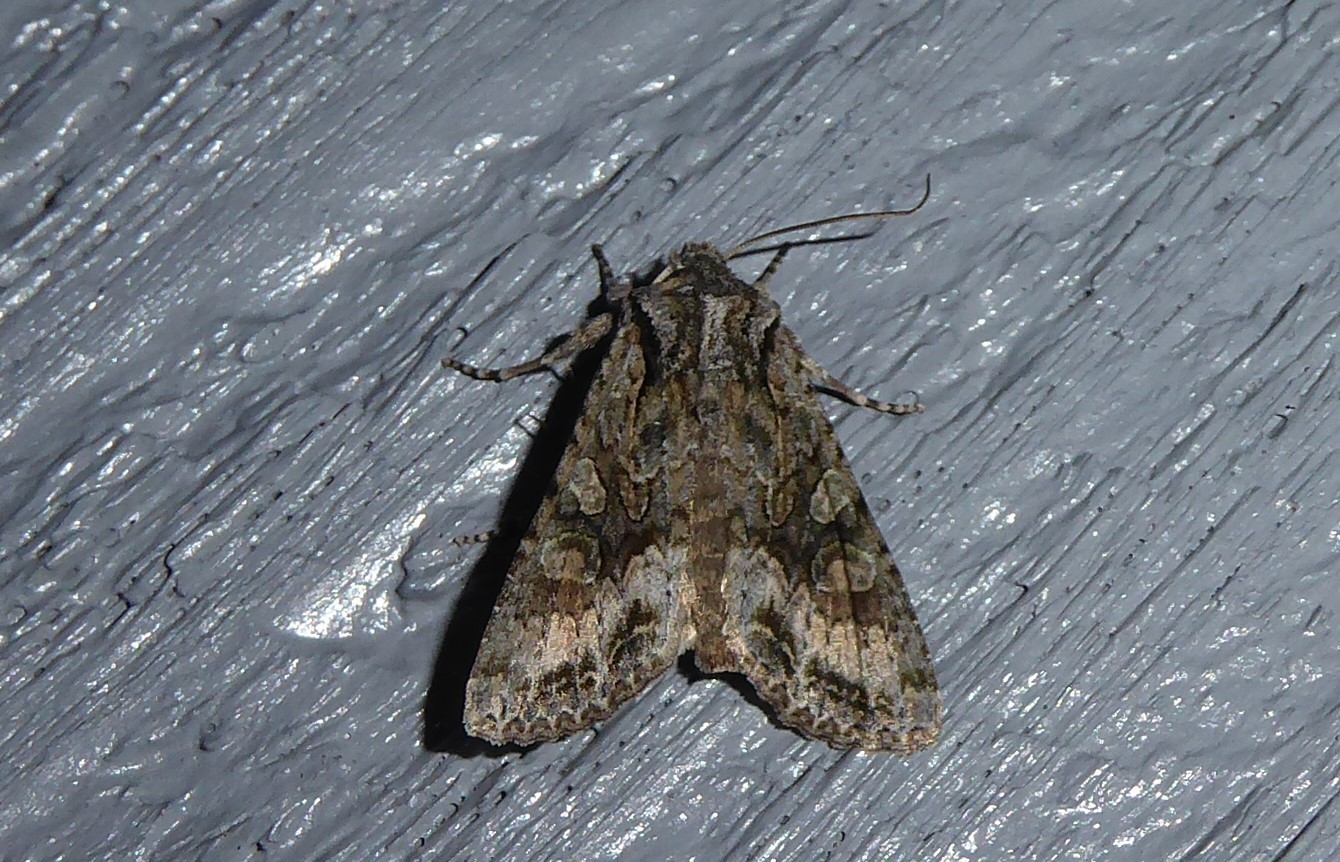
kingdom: Animalia
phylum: Arthropoda
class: Insecta
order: Lepidoptera
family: Noctuidae
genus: Ichneutica
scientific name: Ichneutica mutans
